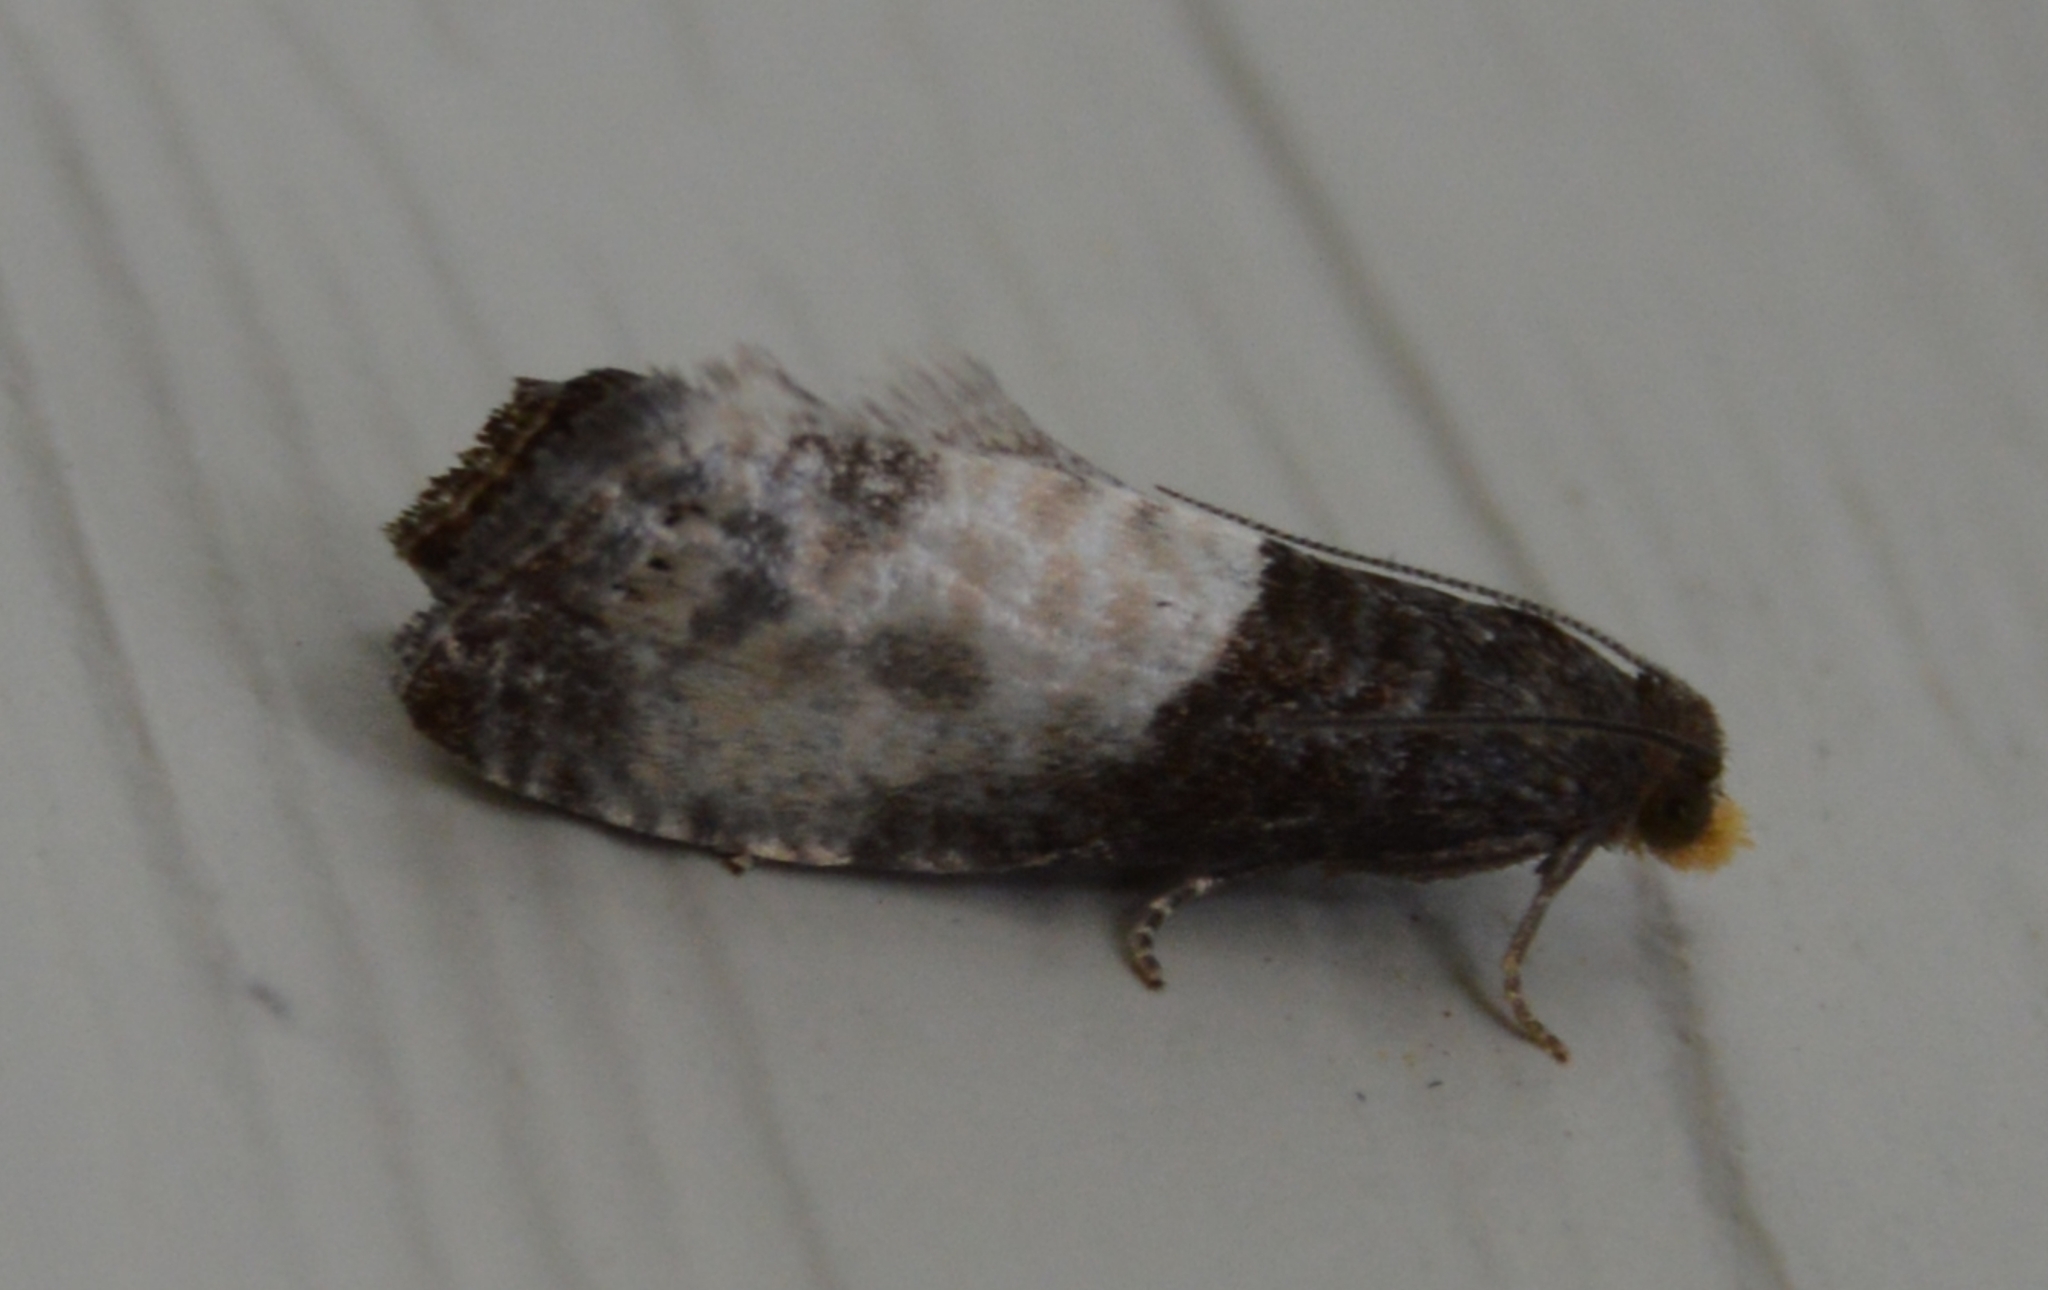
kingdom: Animalia
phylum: Arthropoda
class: Insecta
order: Lepidoptera
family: Tortricidae
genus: Notocelia
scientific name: Notocelia cynosbatella
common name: Yellow-faced bell moth
